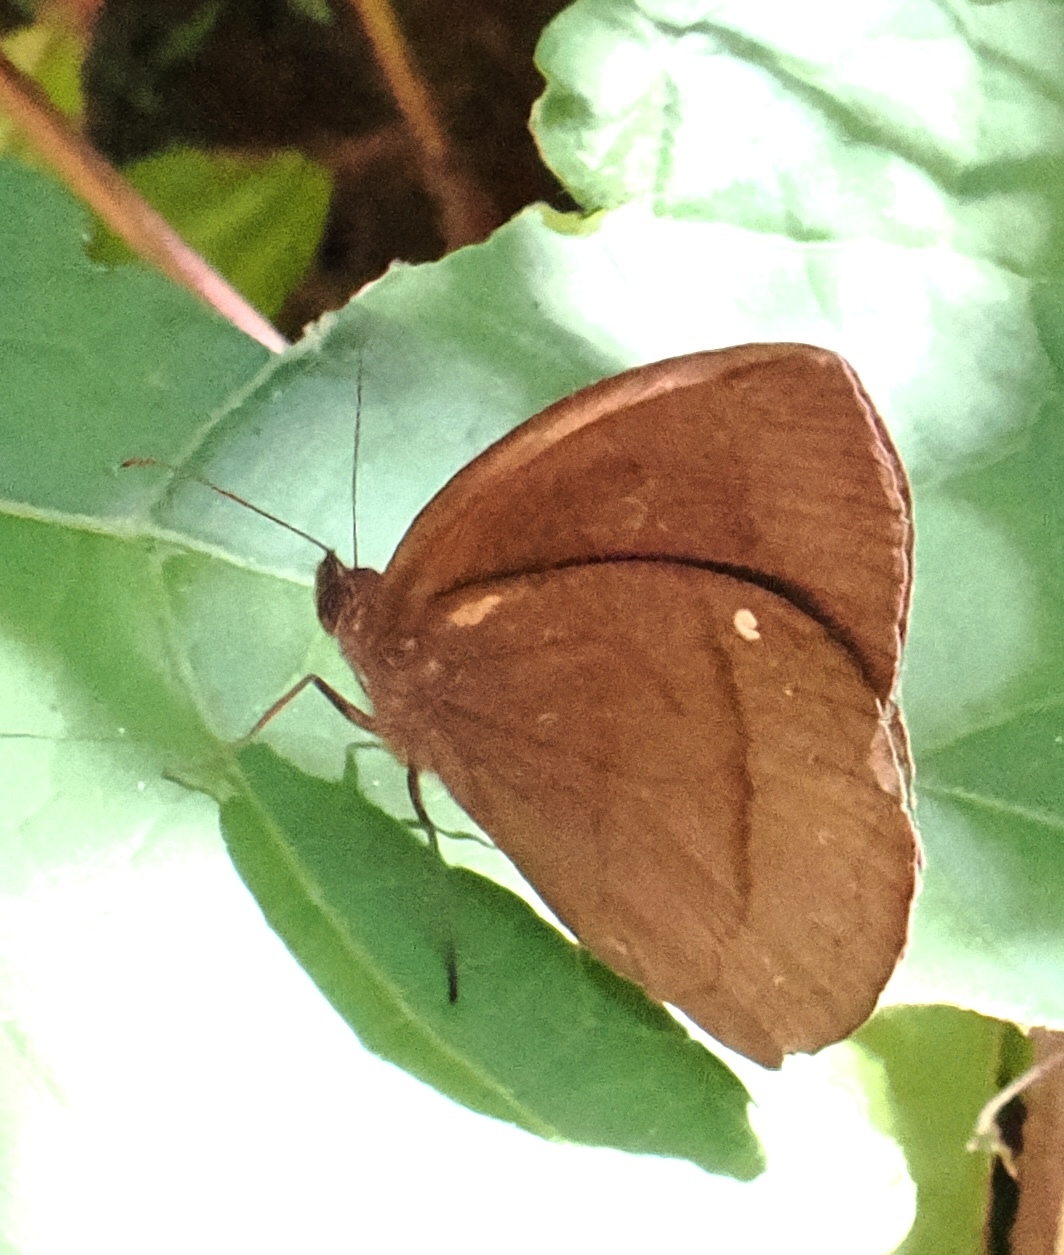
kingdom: Animalia
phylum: Arthropoda
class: Insecta
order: Lepidoptera
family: Nymphalidae
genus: Forsterinaria
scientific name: Forsterinaria quantius
